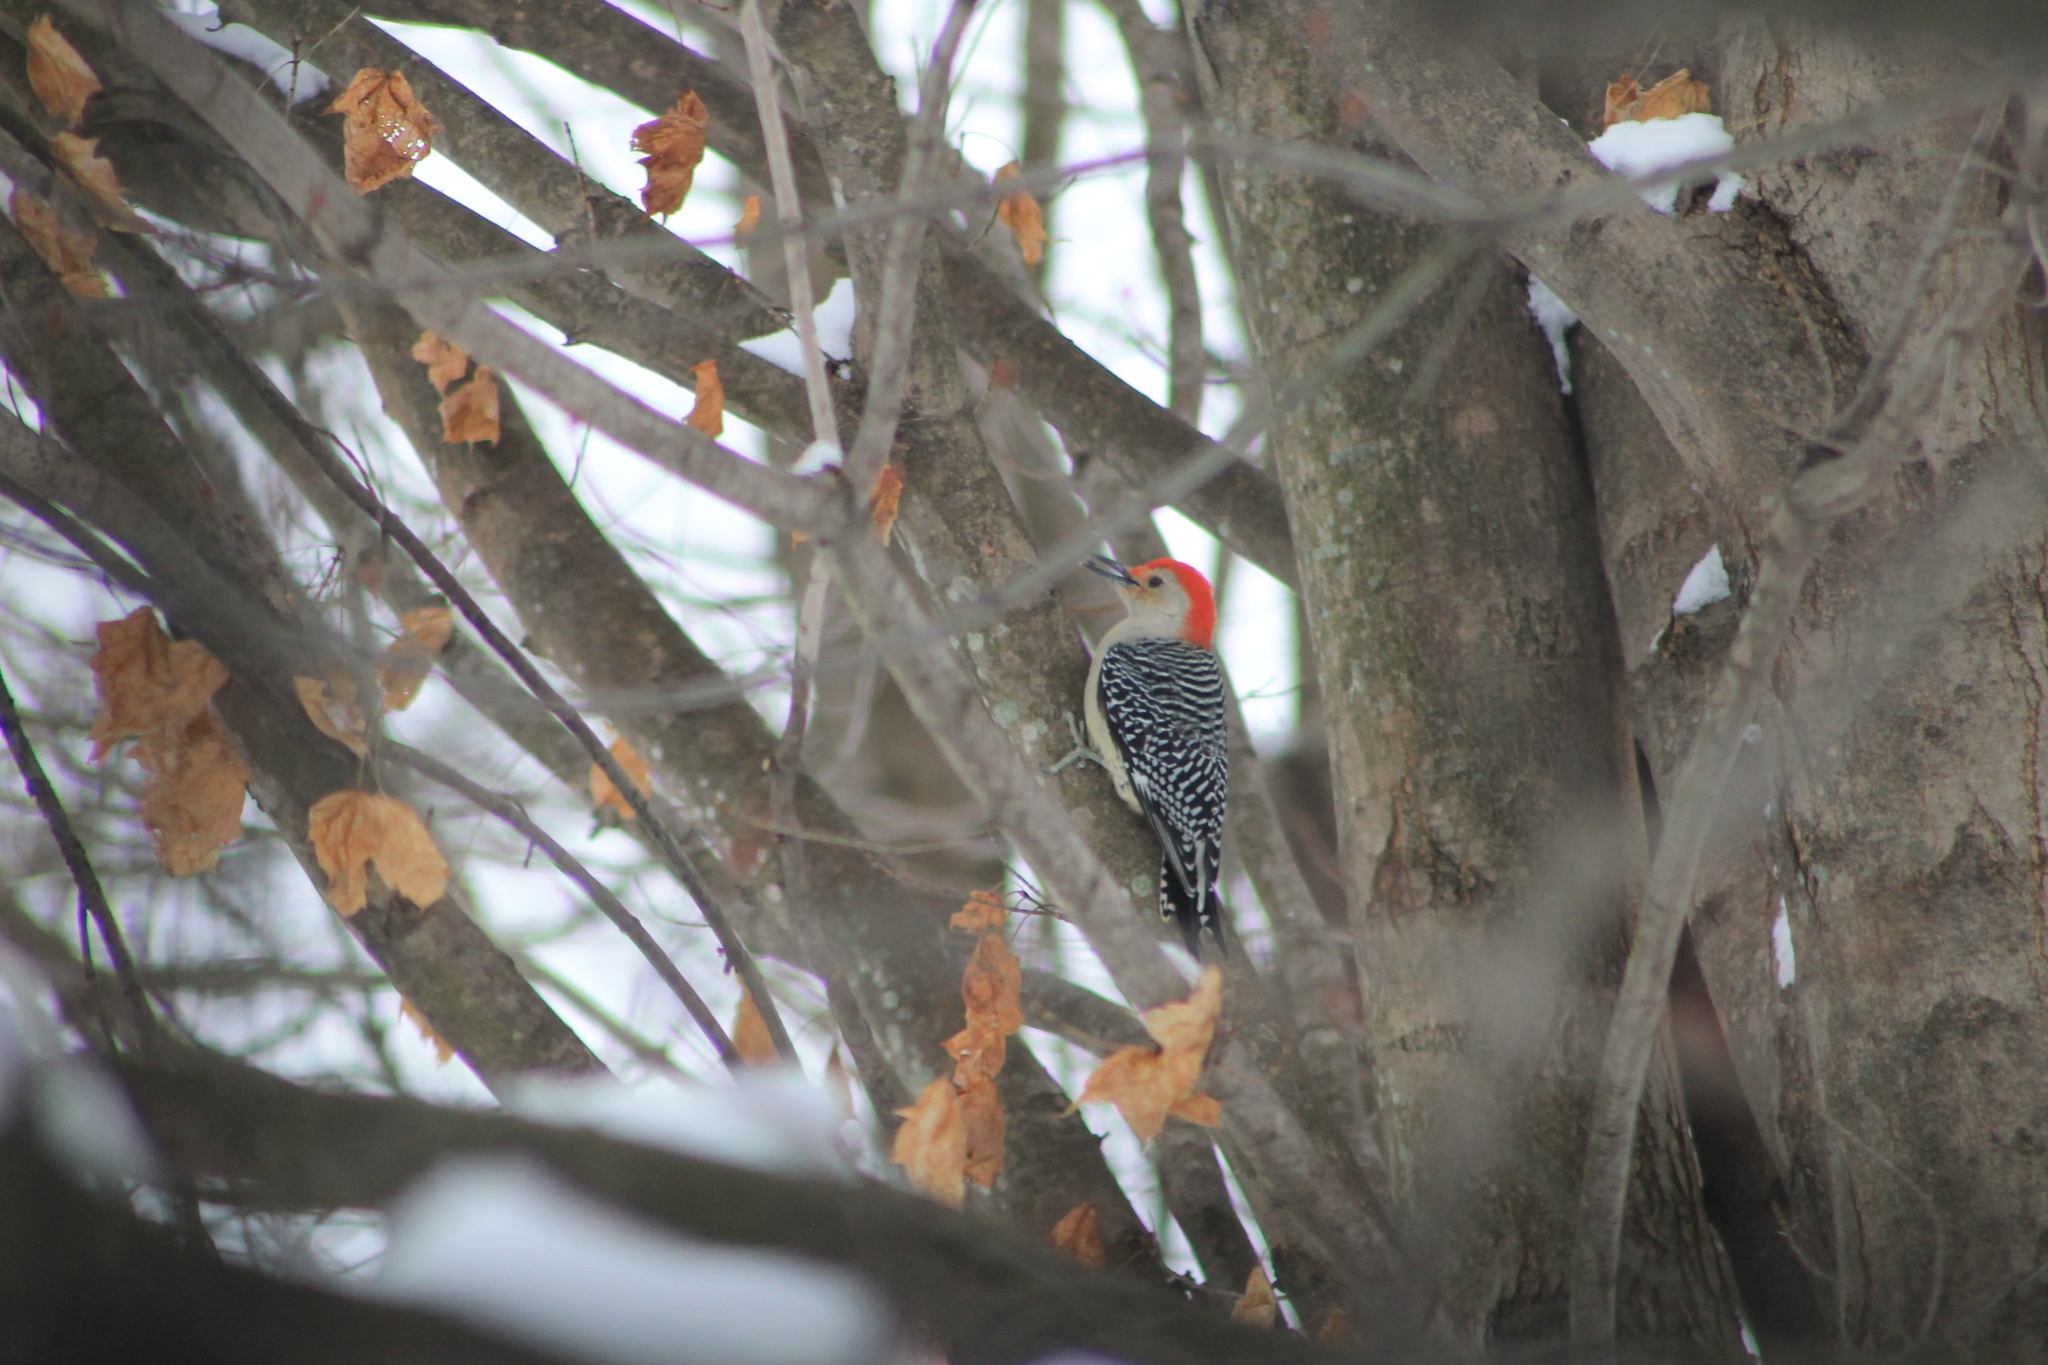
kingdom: Animalia
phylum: Chordata
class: Aves
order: Piciformes
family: Picidae
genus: Melanerpes
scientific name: Melanerpes carolinus
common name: Red-bellied woodpecker
